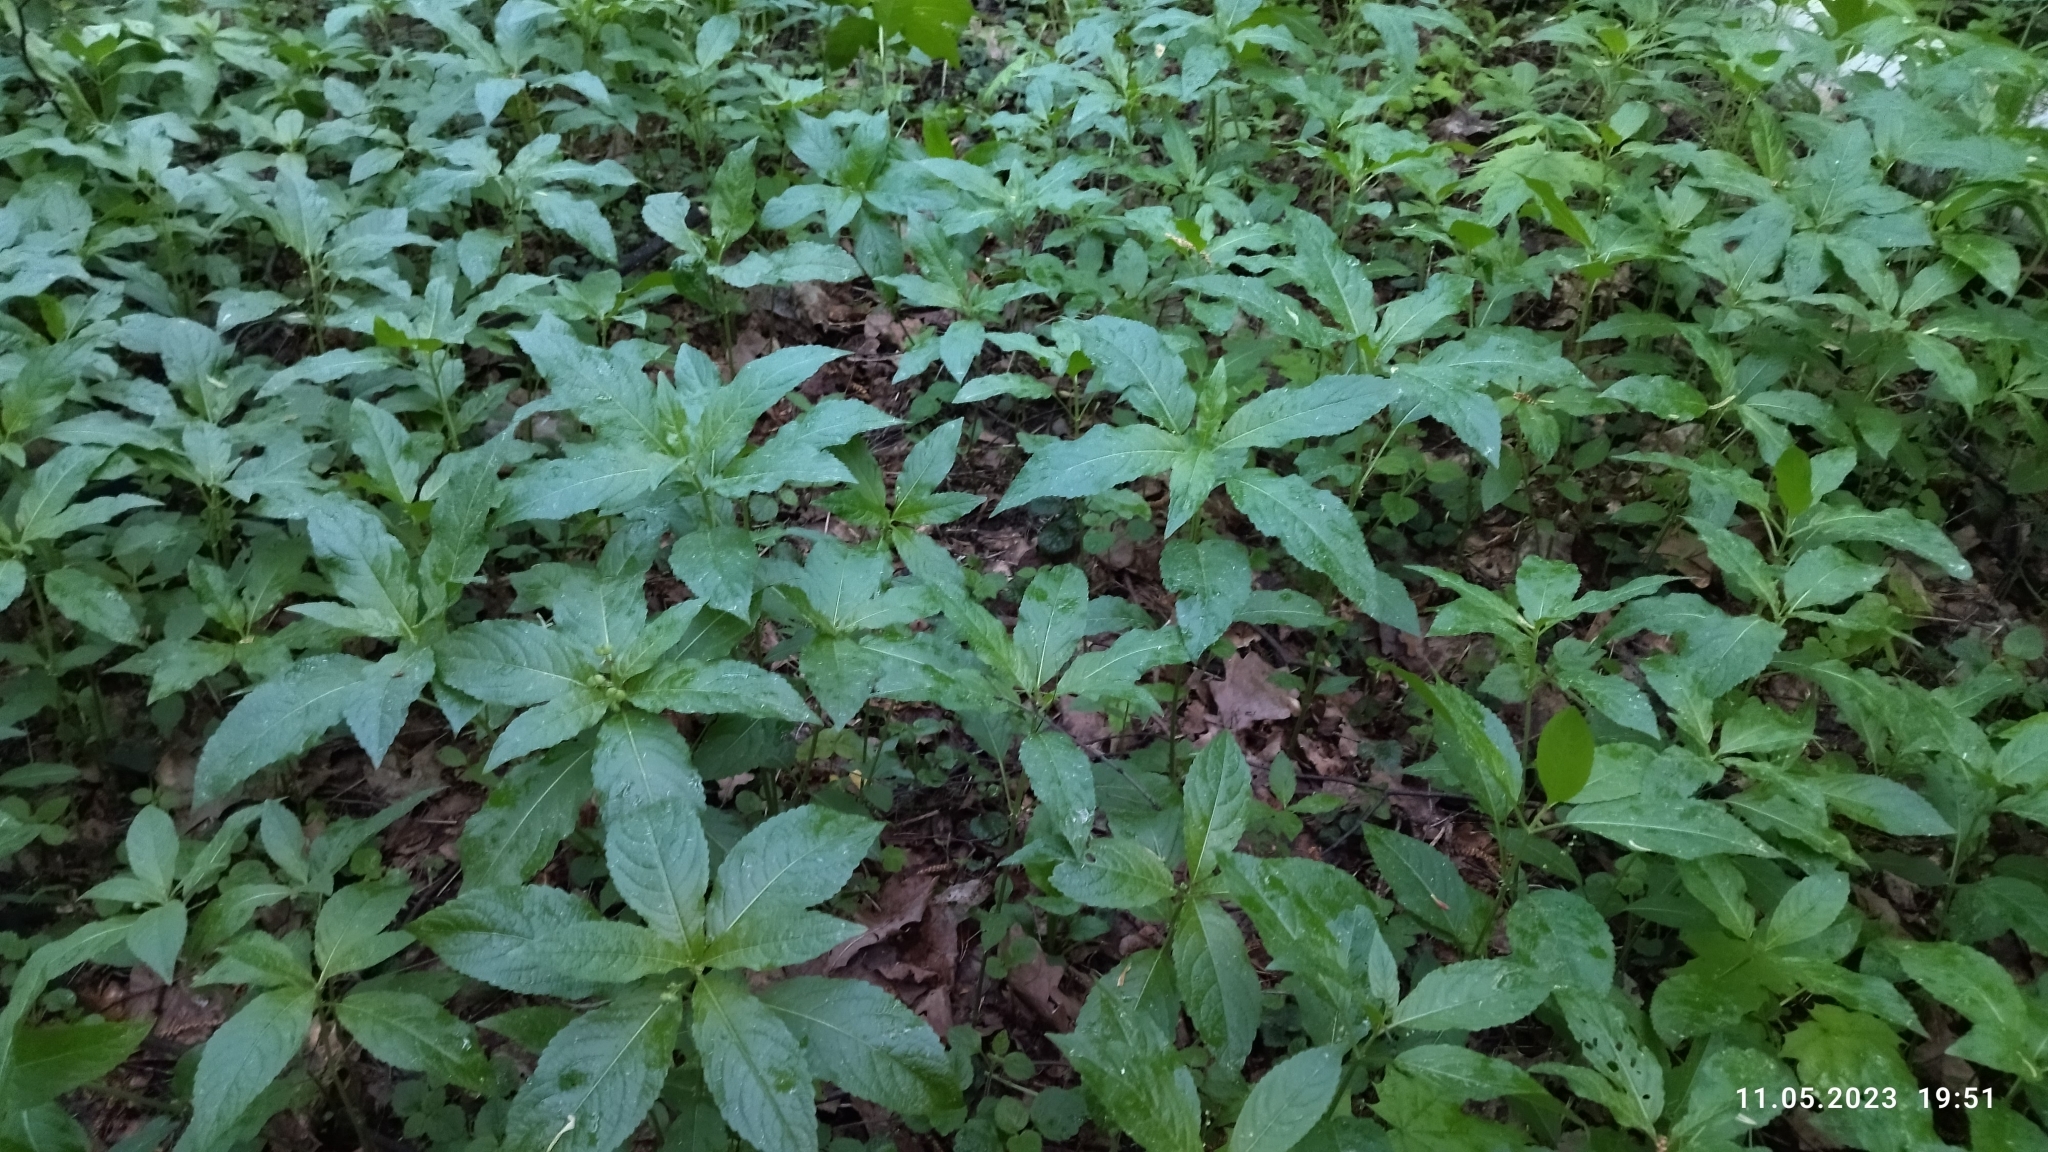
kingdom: Plantae
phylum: Tracheophyta
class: Magnoliopsida
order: Malpighiales
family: Euphorbiaceae
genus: Mercurialis
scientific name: Mercurialis perennis
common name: Dog mercury
